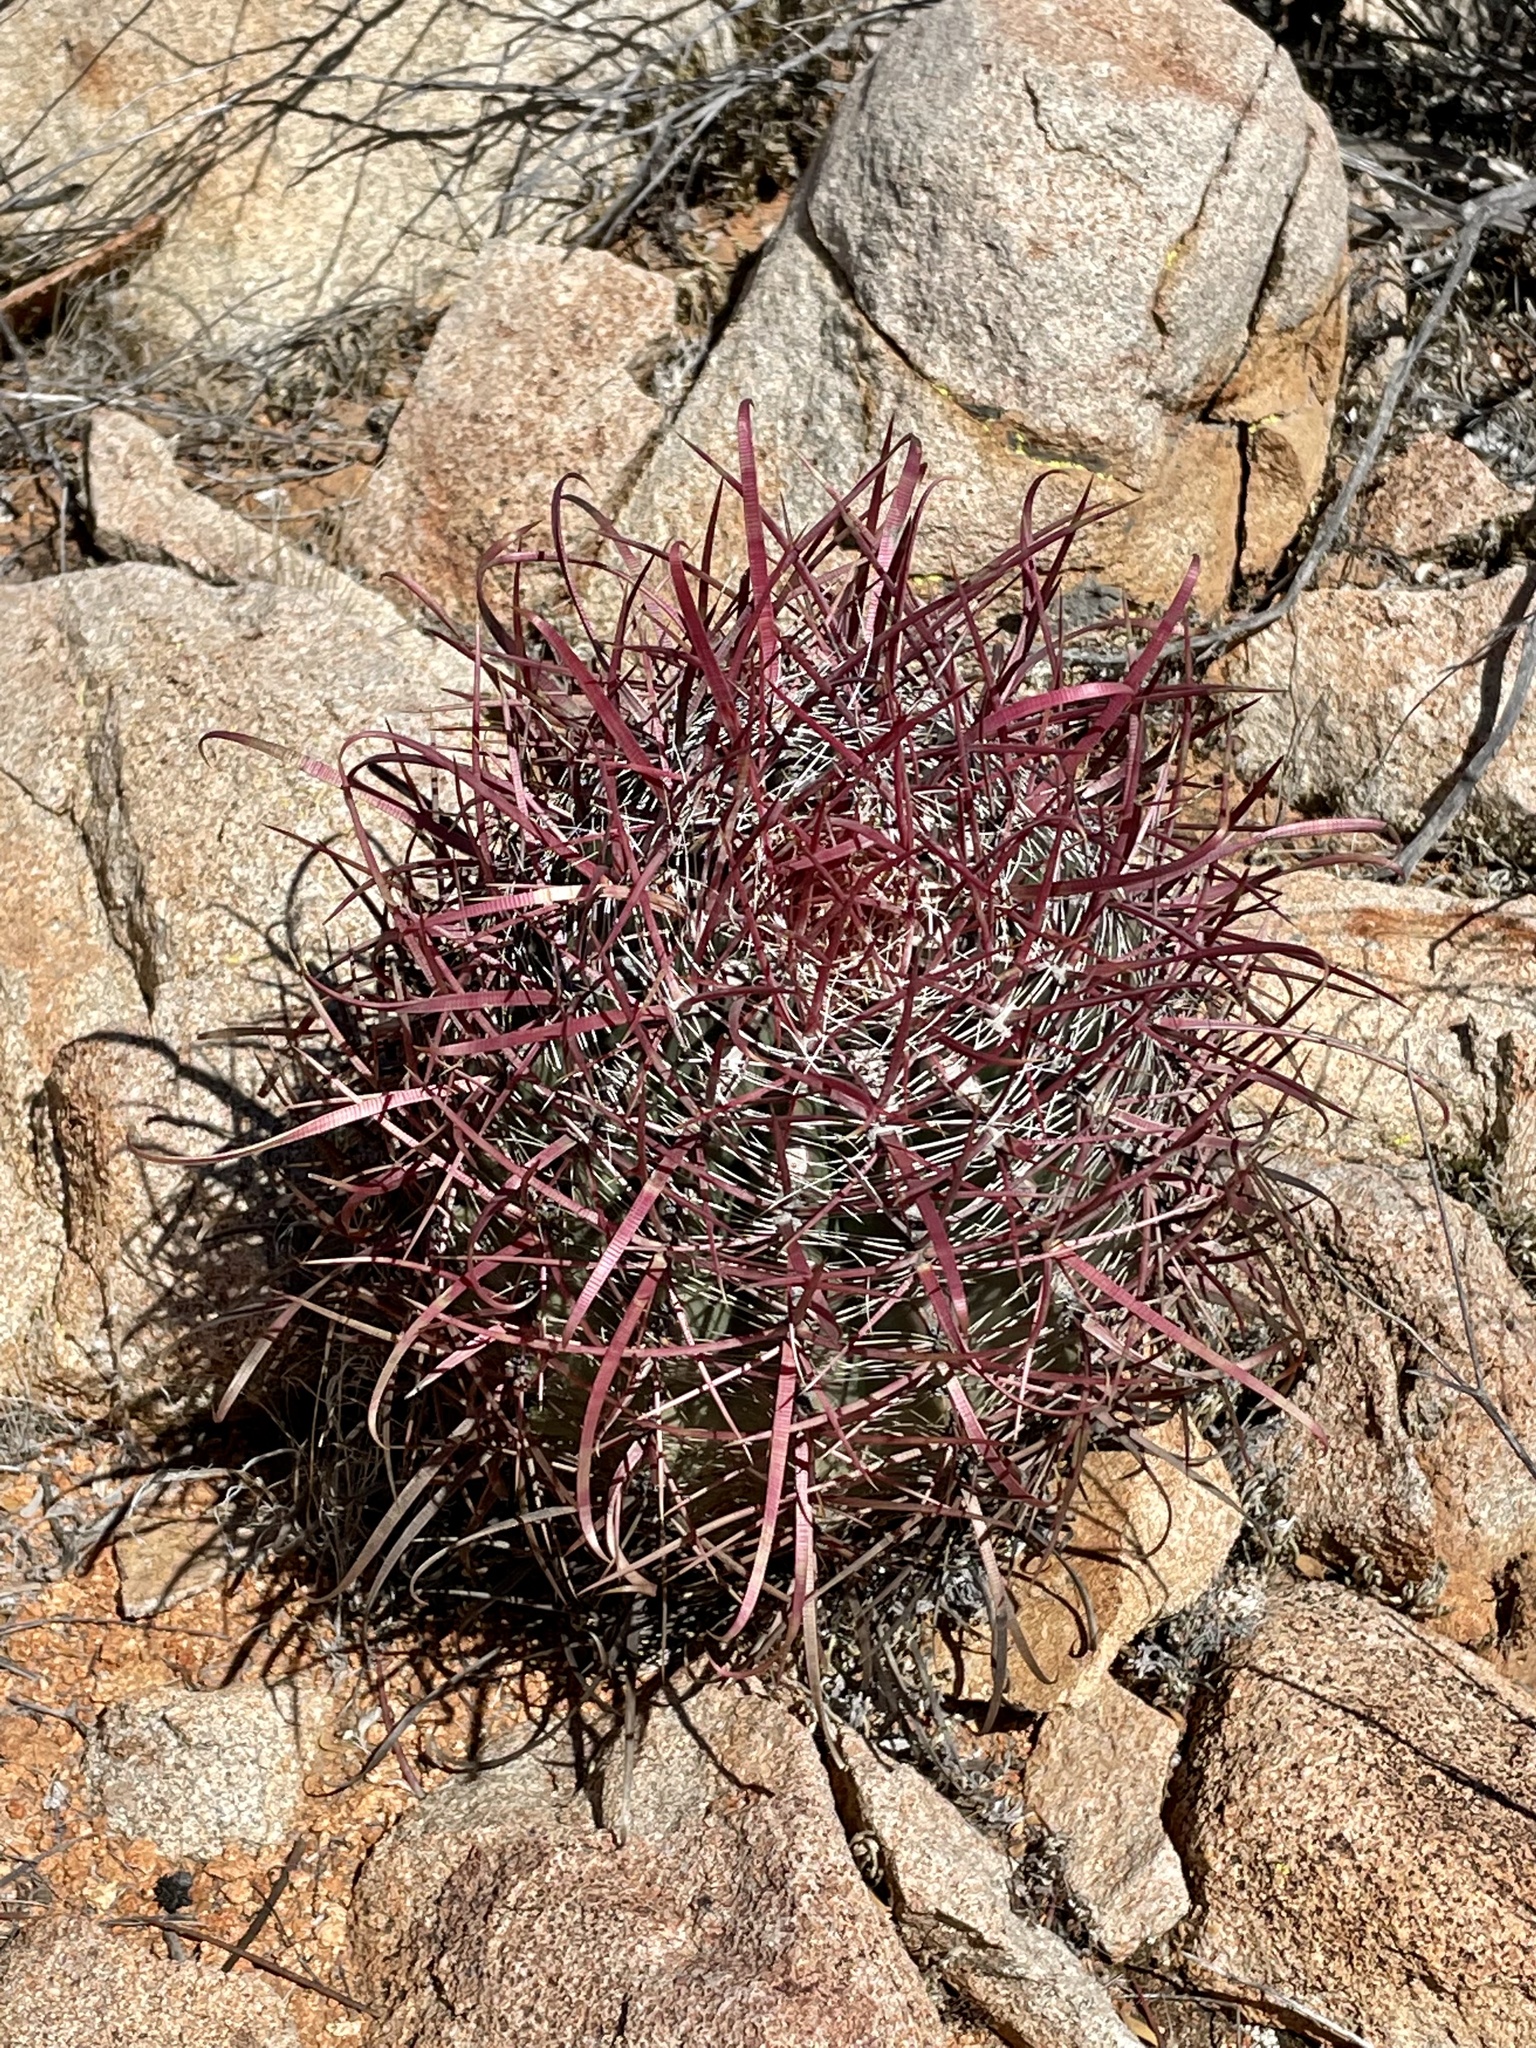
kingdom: Plantae
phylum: Tracheophyta
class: Magnoliopsida
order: Caryophyllales
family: Cactaceae
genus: Ferocactus
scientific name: Ferocactus gracilis
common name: Fire barrel cactus
